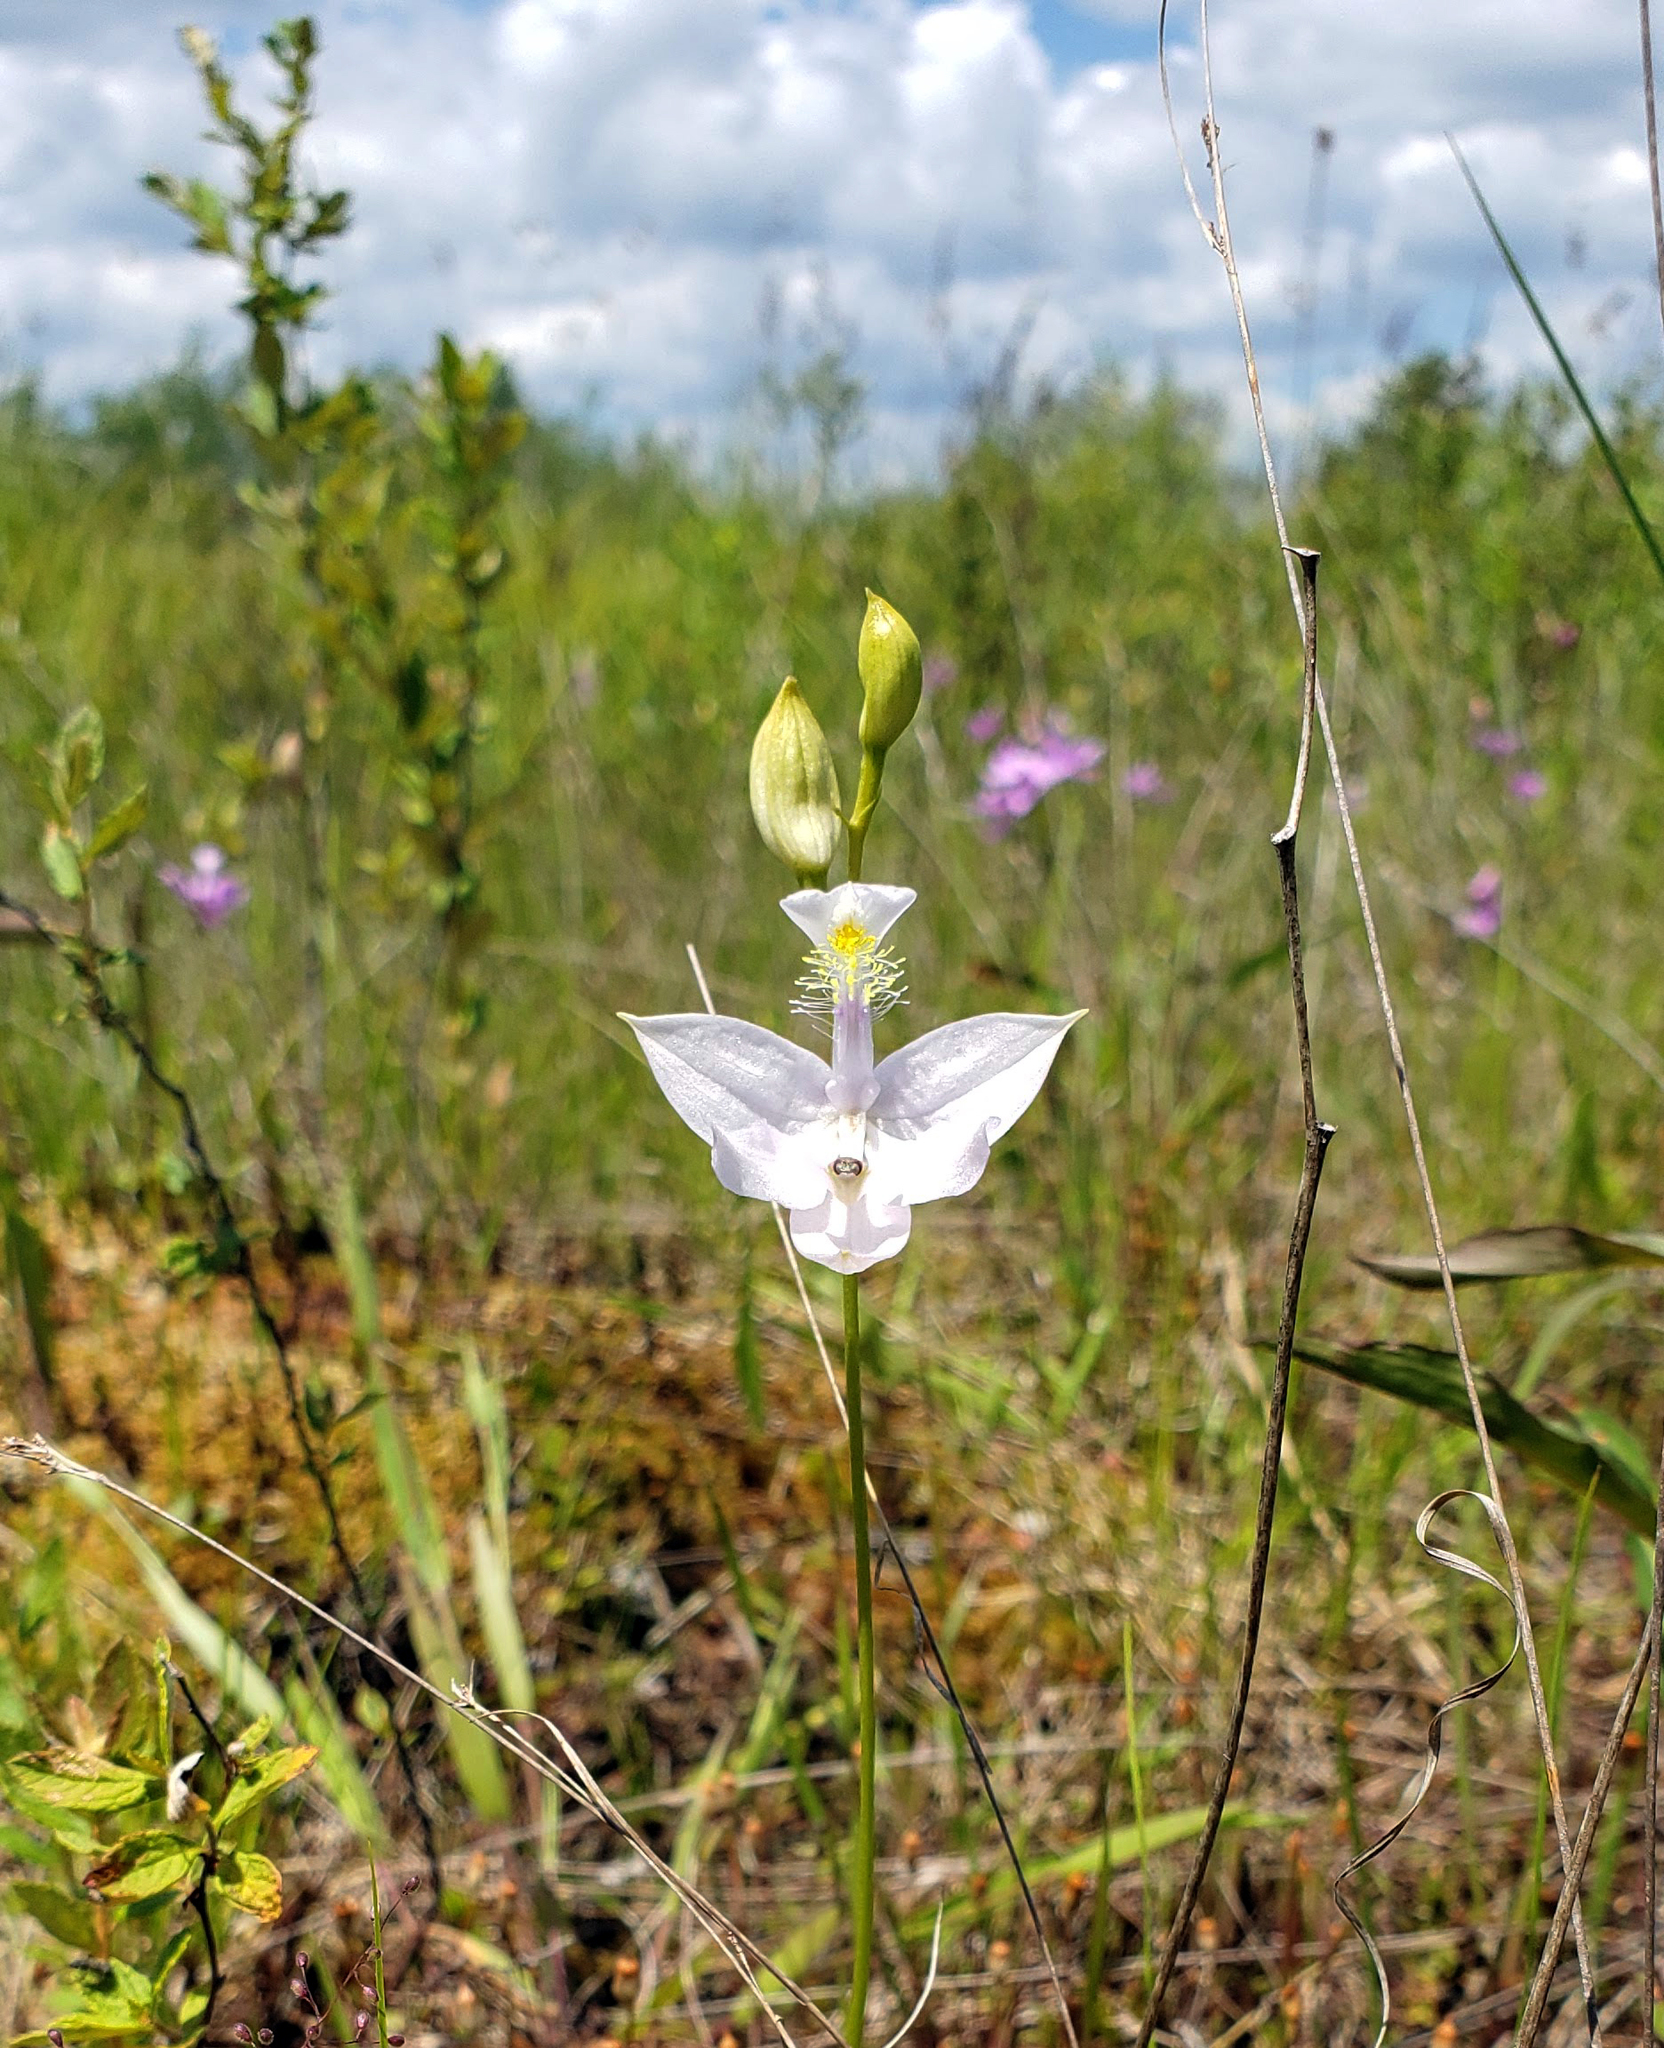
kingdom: Plantae
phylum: Tracheophyta
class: Liliopsida
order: Asparagales
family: Orchidaceae
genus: Calopogon
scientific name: Calopogon tuberosus
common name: Grass-pink
